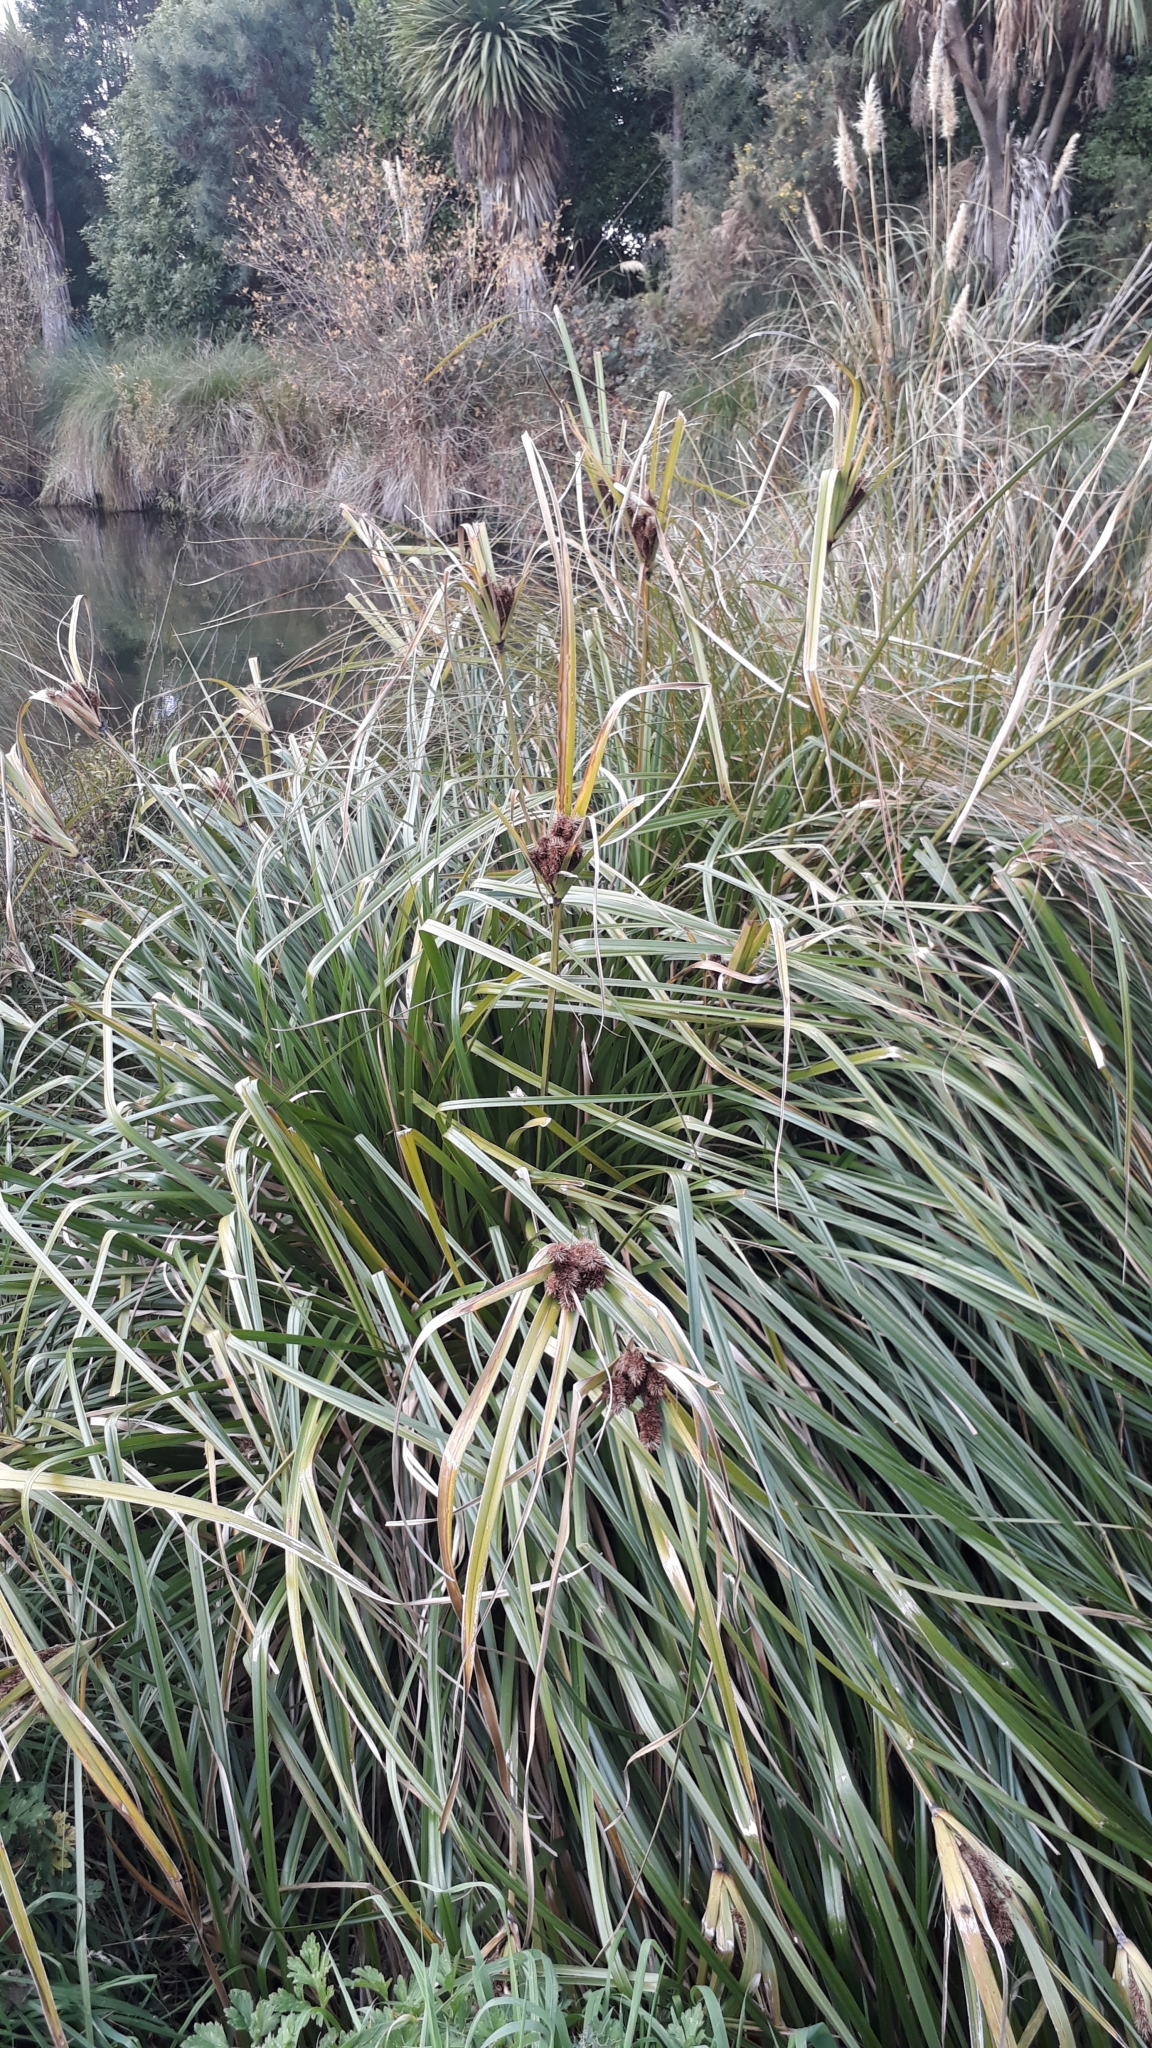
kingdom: Plantae
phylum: Tracheophyta
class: Liliopsida
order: Poales
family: Cyperaceae
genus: Cyperus
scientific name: Cyperus ustulatus
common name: Giant umbrella-sedge
